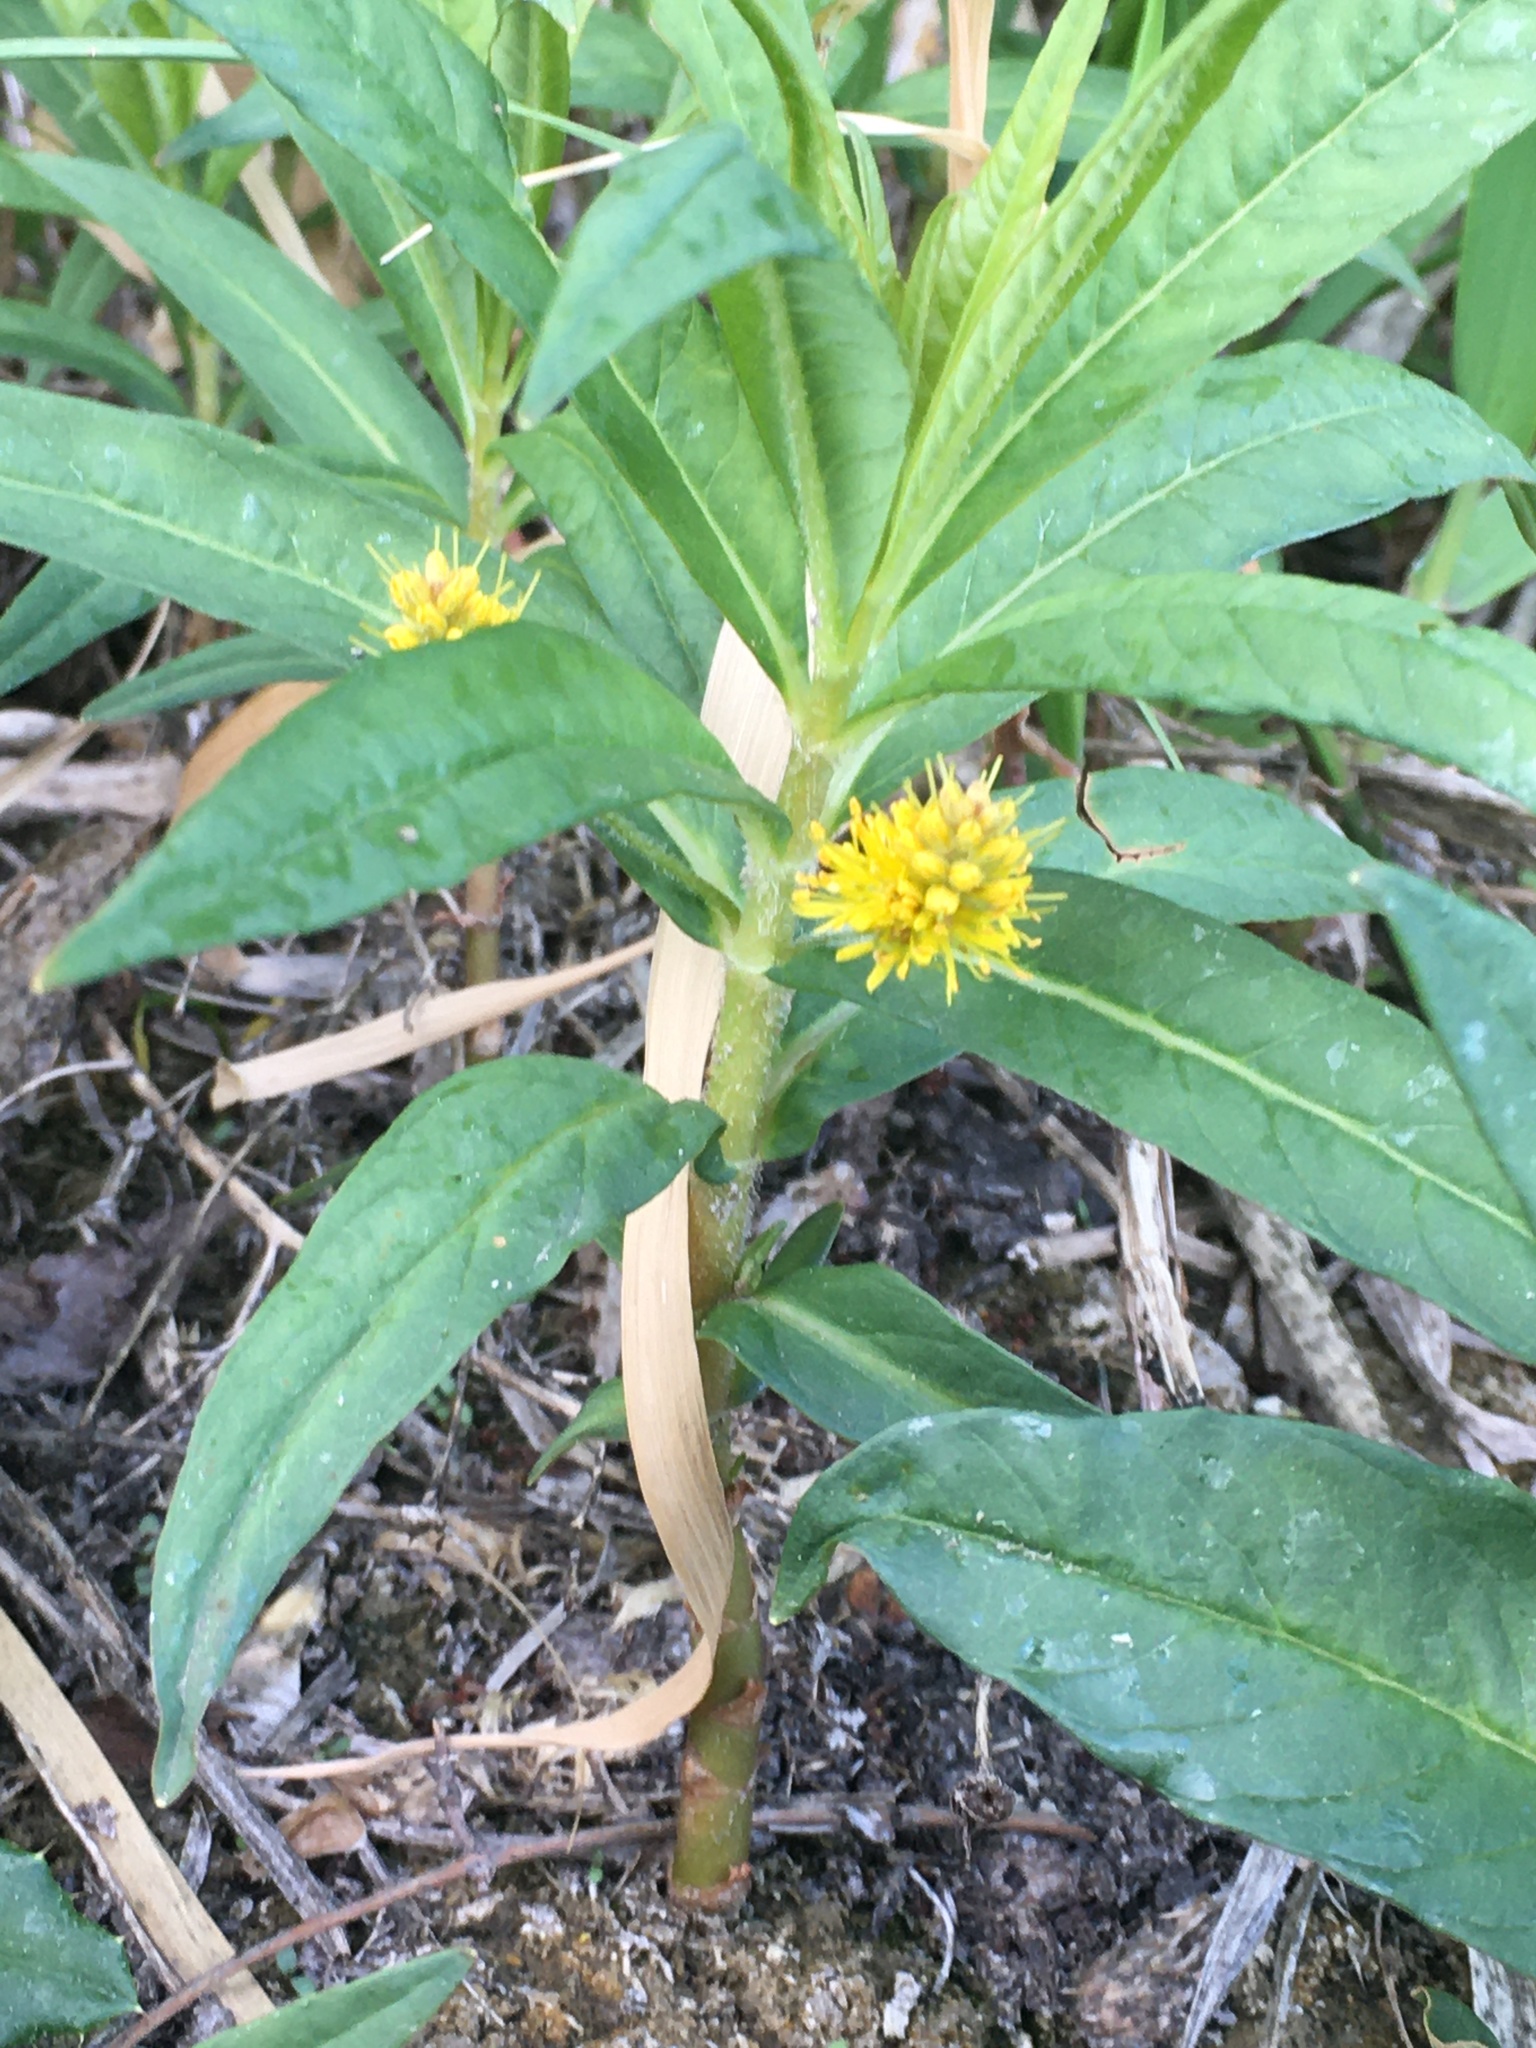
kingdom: Plantae
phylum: Tracheophyta
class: Magnoliopsida
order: Ericales
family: Primulaceae
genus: Lysimachia
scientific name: Lysimachia thyrsiflora
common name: Tufted loosestrife
